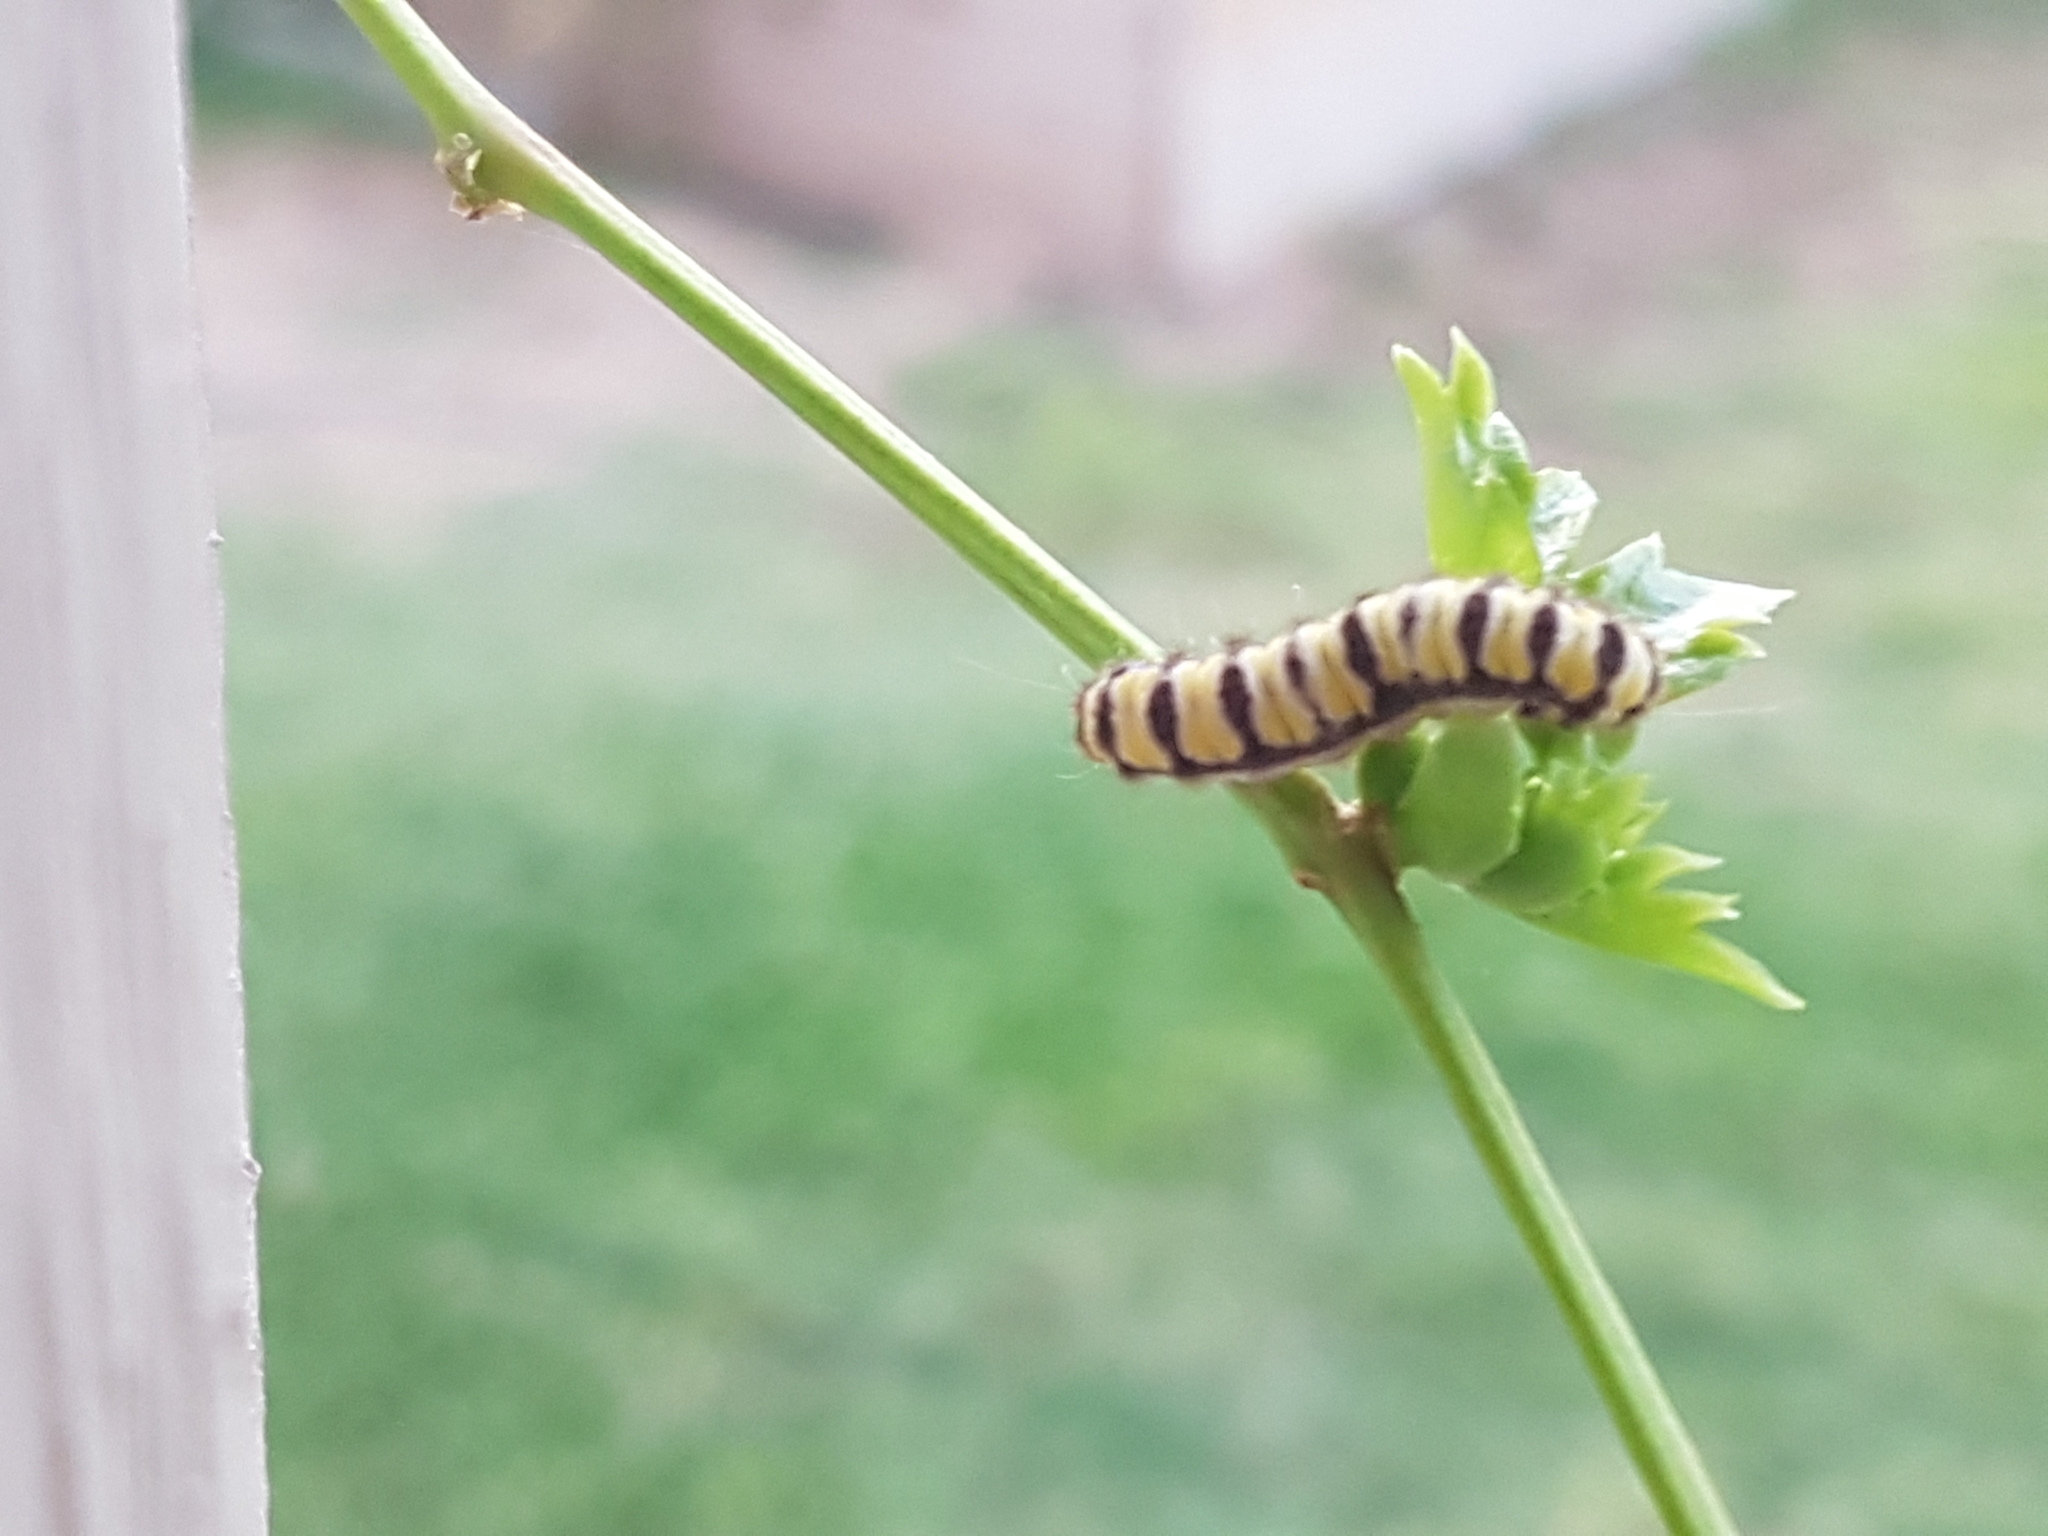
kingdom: Animalia
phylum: Arthropoda
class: Insecta
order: Lepidoptera
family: Zygaenidae
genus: Harrisina
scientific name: Harrisina americana
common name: Grapeleaf skeletonizer moth
